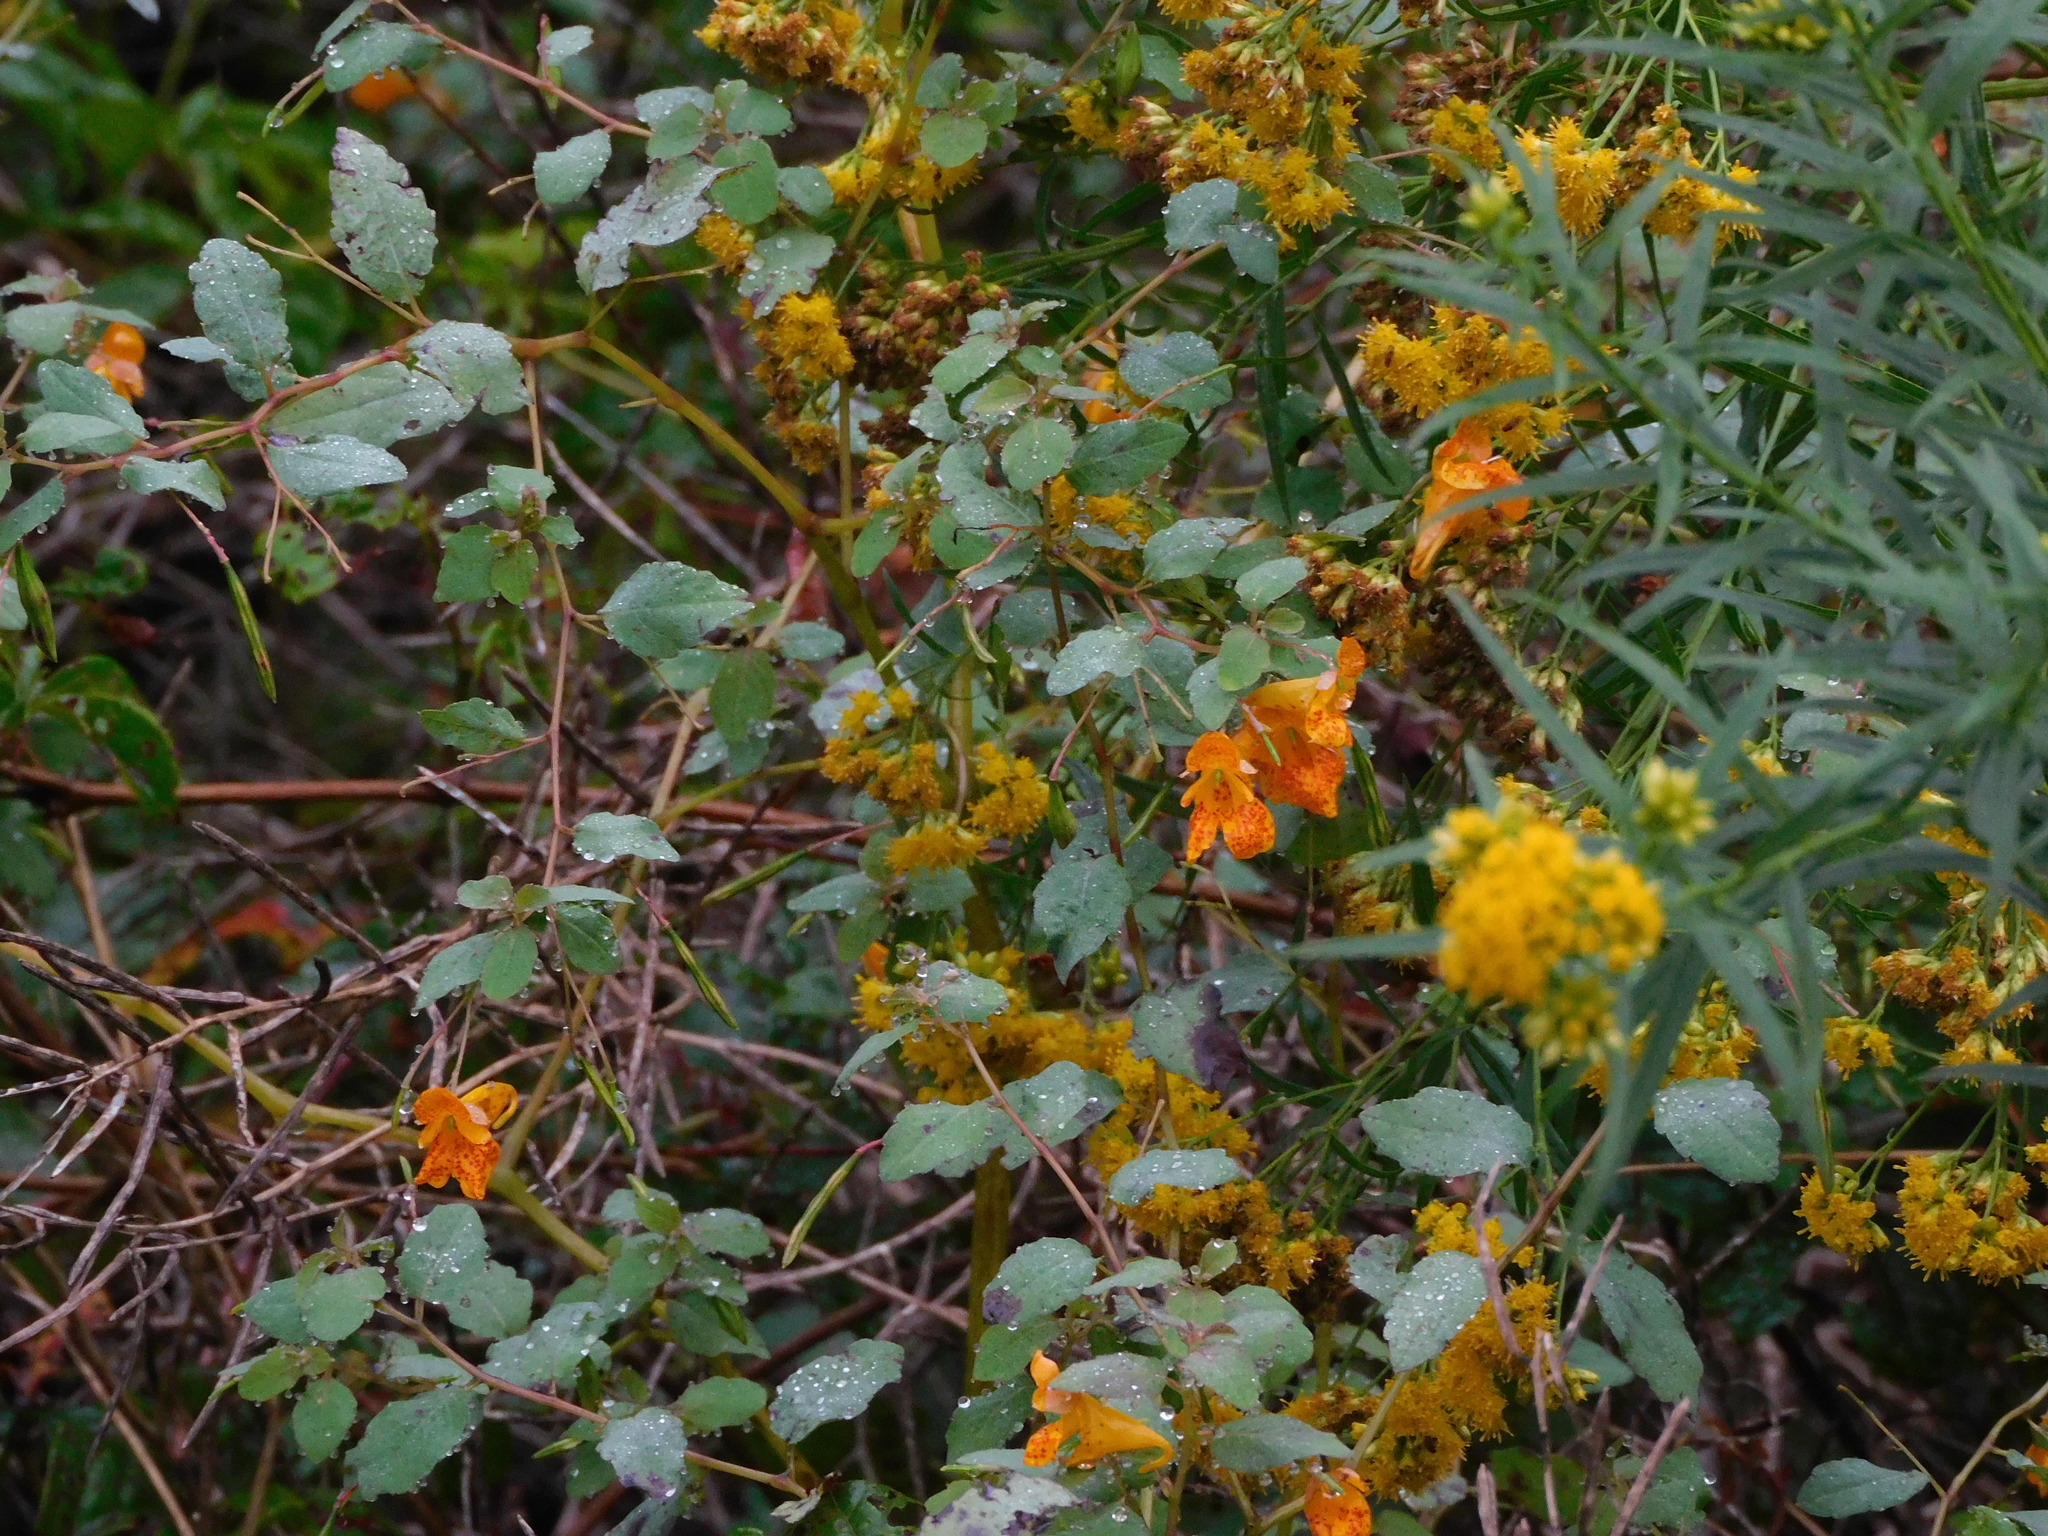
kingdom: Plantae
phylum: Tracheophyta
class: Magnoliopsida
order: Ericales
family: Balsaminaceae
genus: Impatiens
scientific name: Impatiens capensis
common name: Orange balsam
